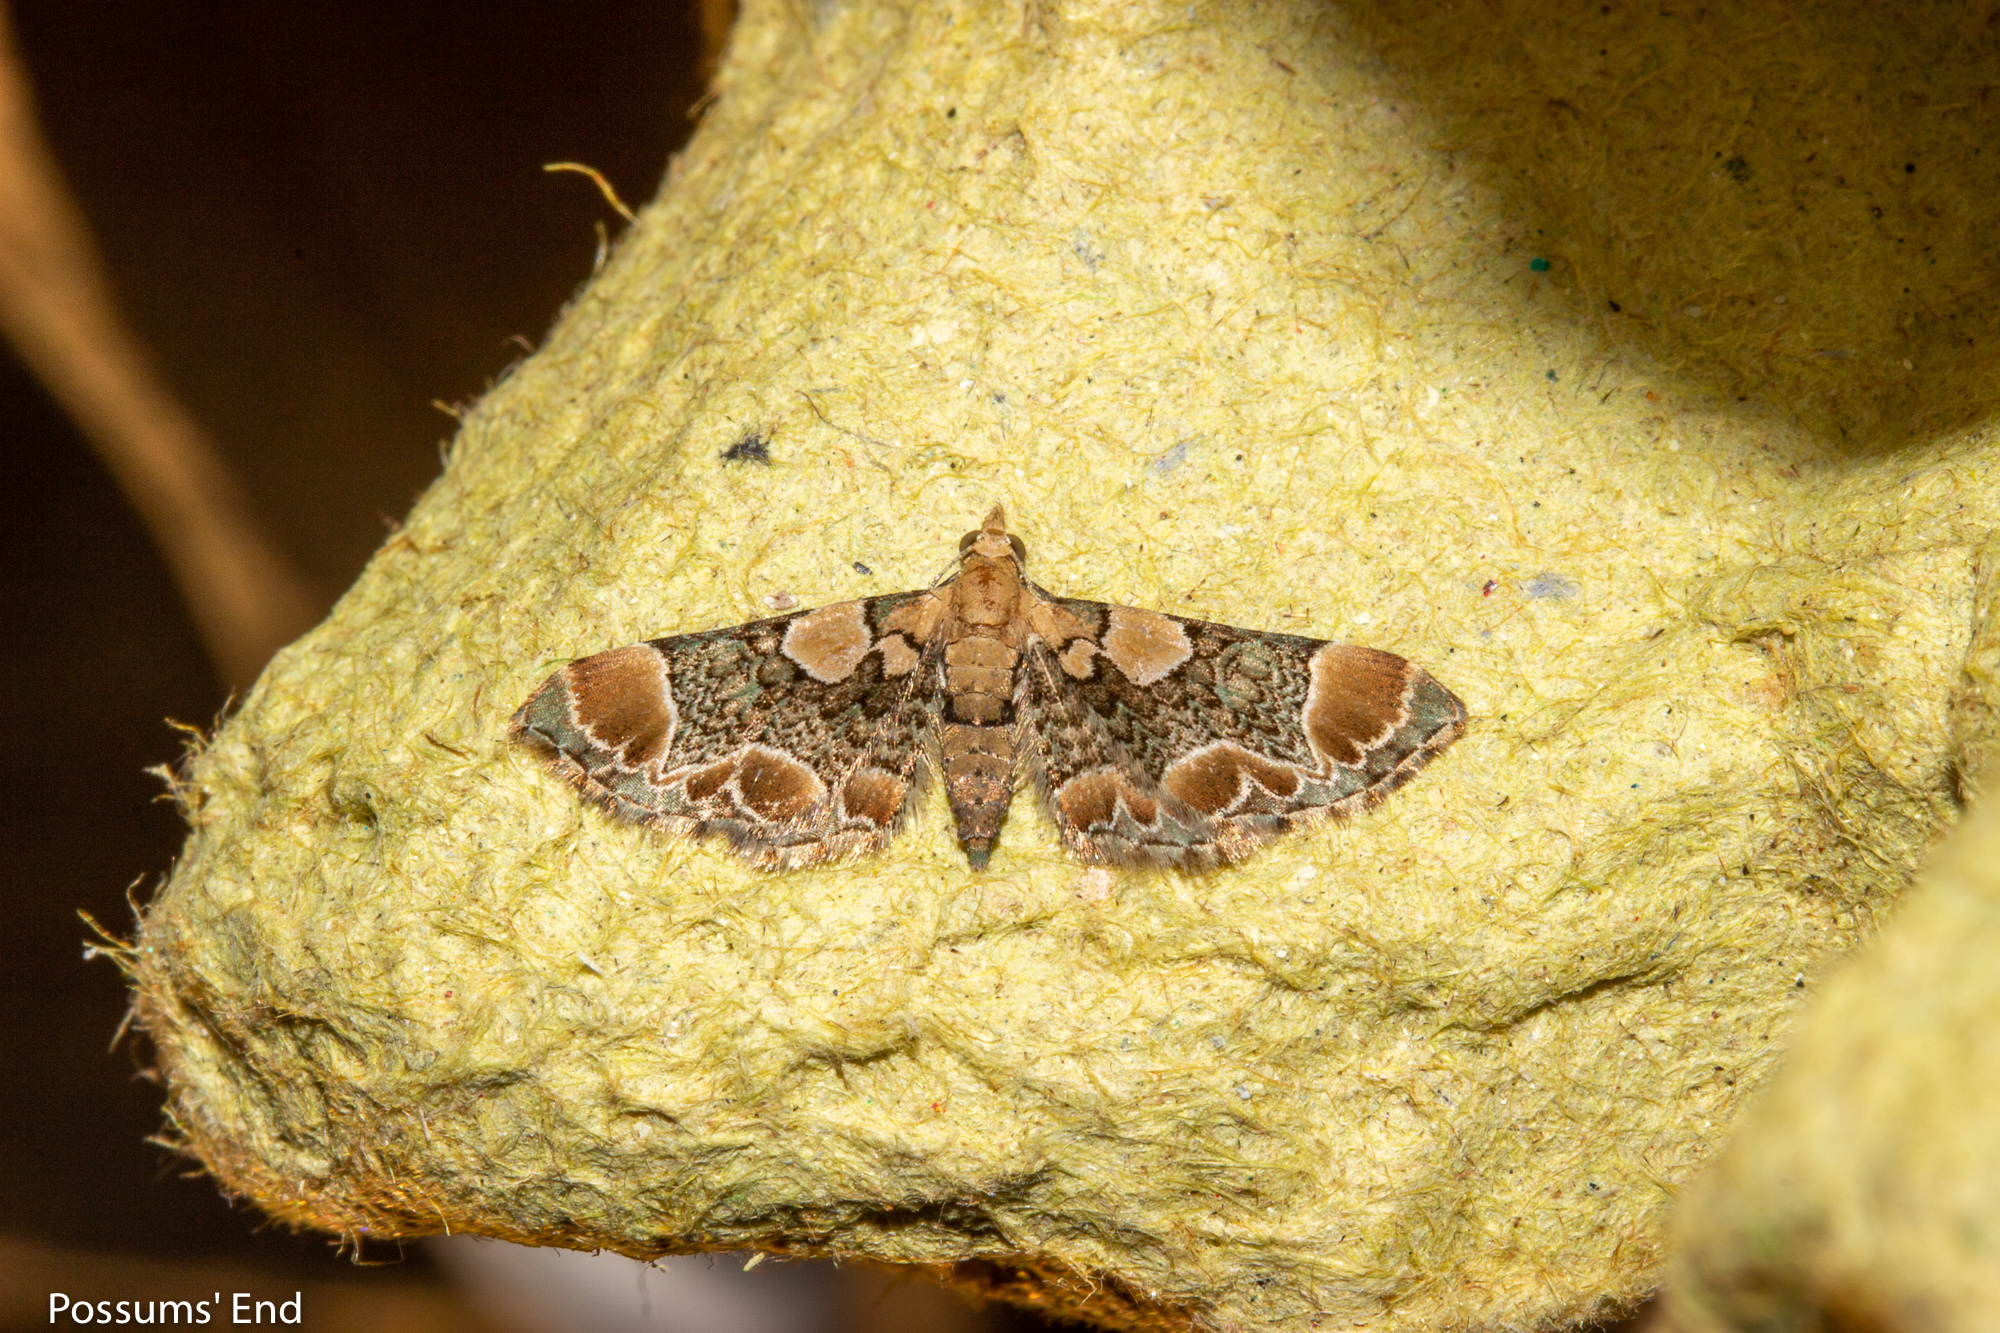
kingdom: Animalia
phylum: Arthropoda
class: Insecta
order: Lepidoptera
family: Geometridae
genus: Chloroclystis
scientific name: Chloroclystis
